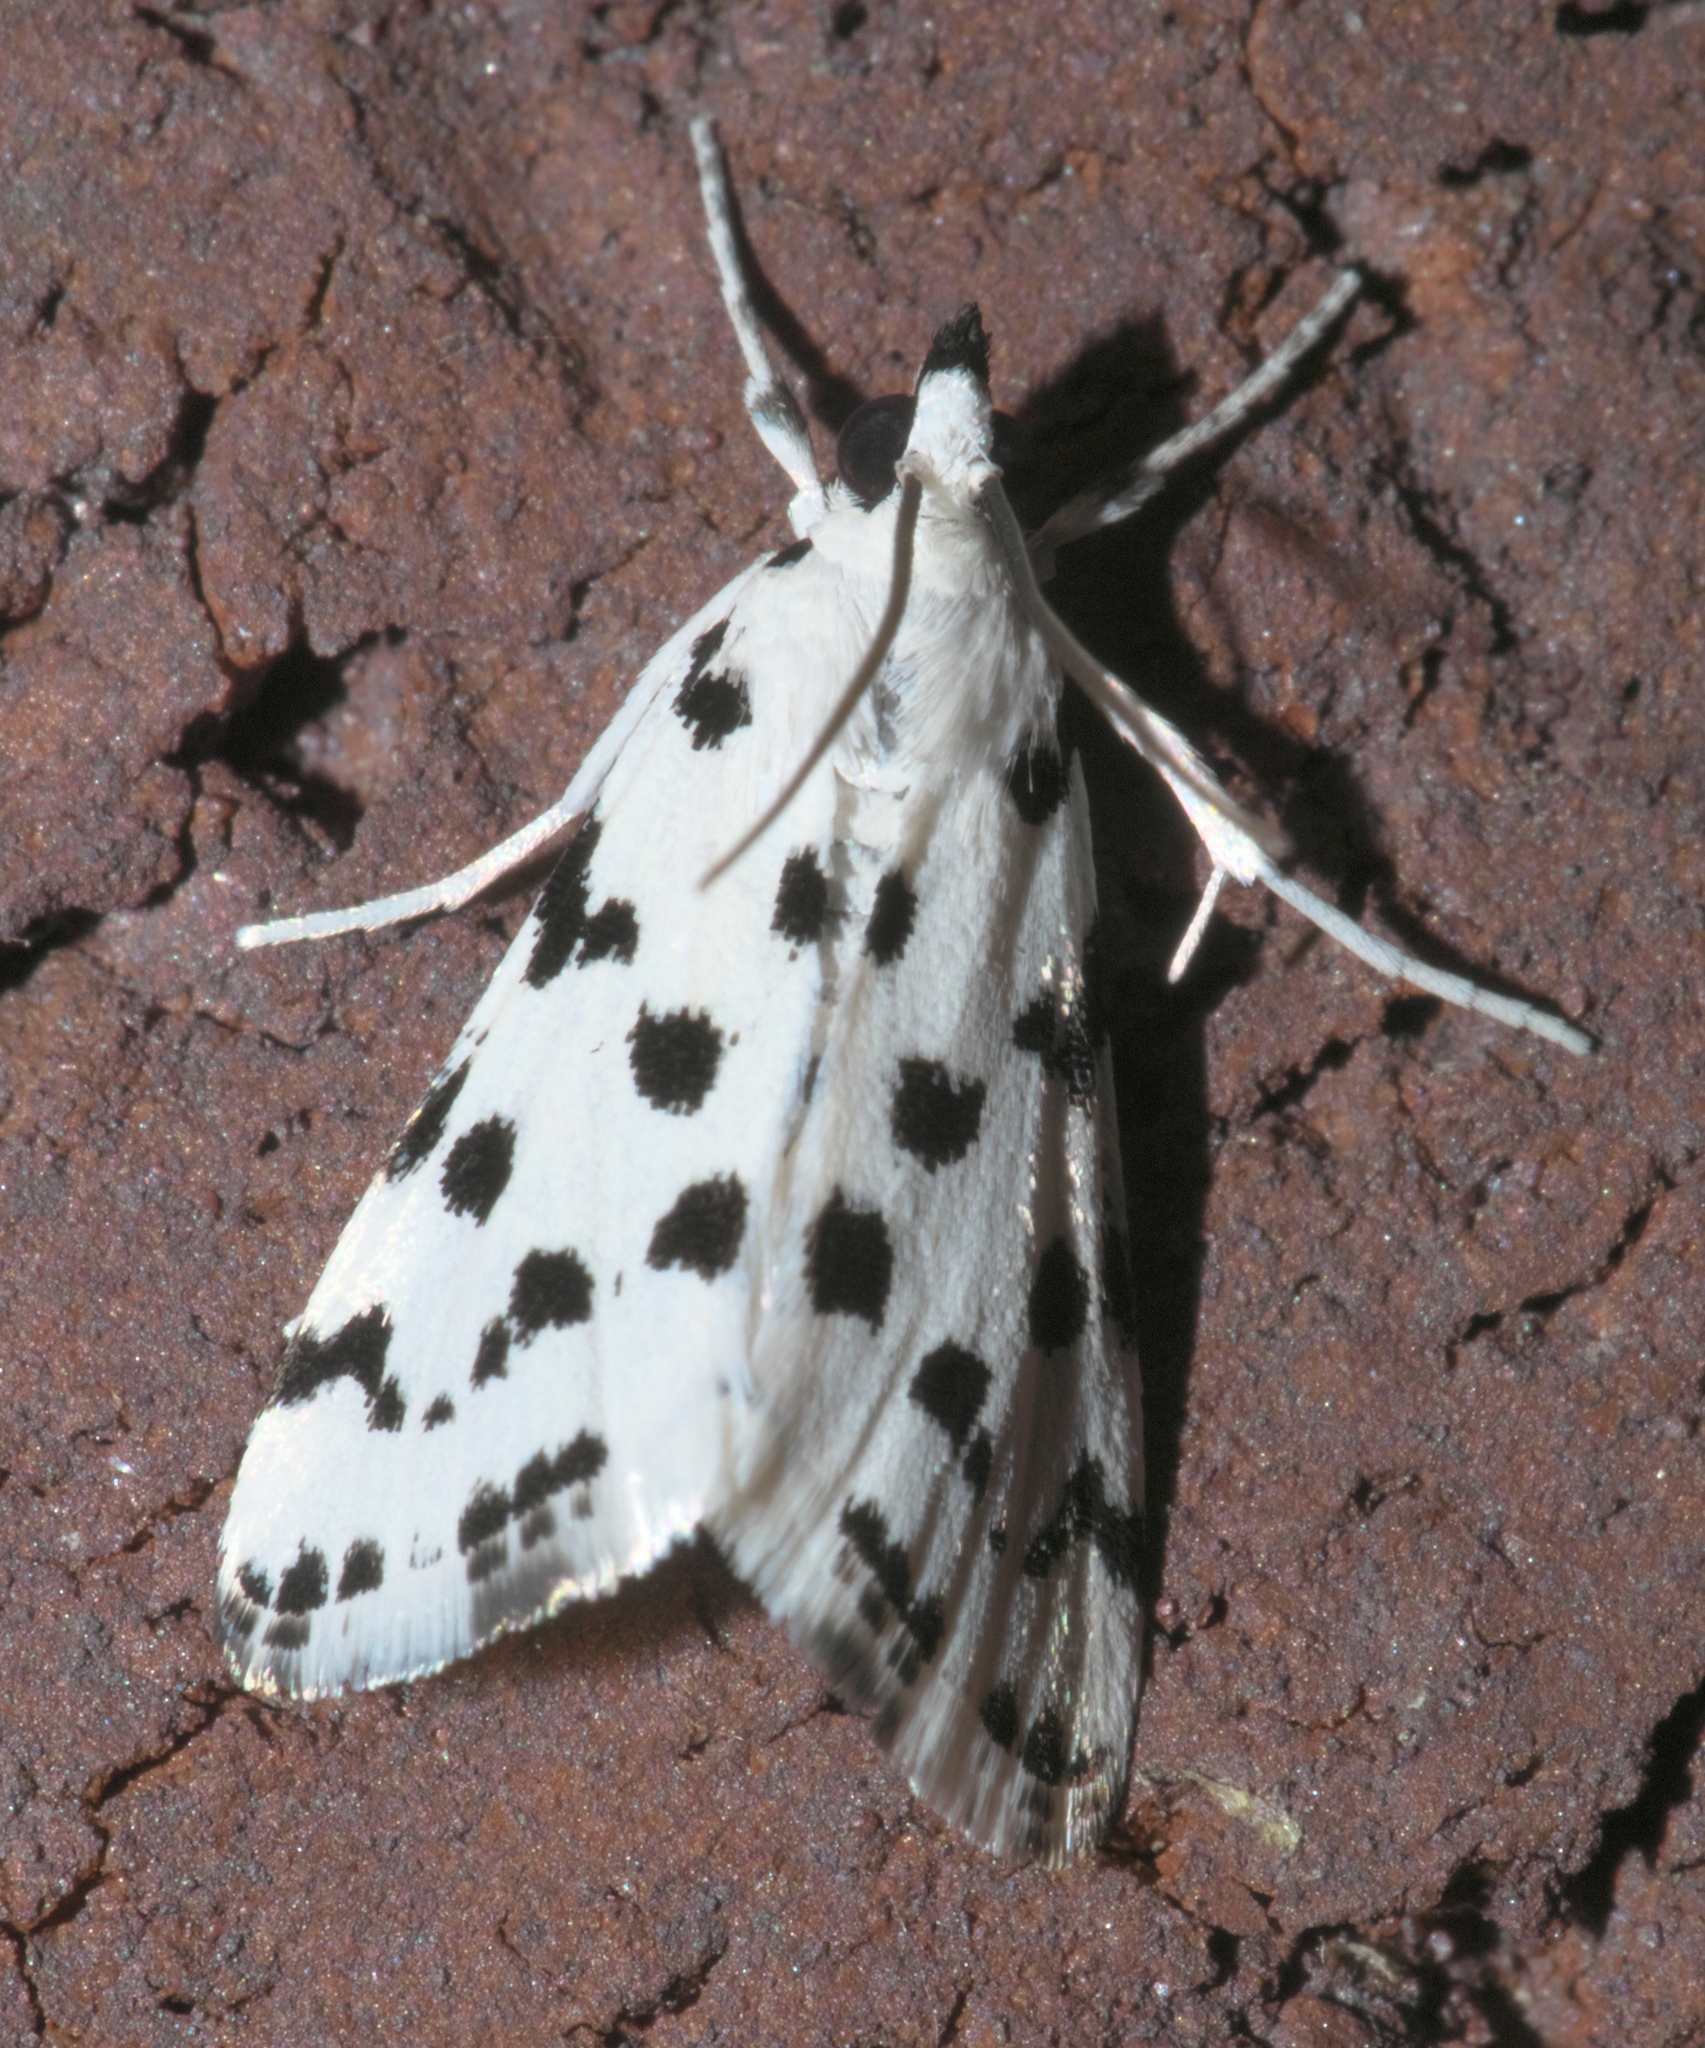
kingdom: Animalia
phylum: Arthropoda
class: Insecta
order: Lepidoptera
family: Crambidae
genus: Eustixia
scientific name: Eustixia pupula
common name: American cabbage pearl
